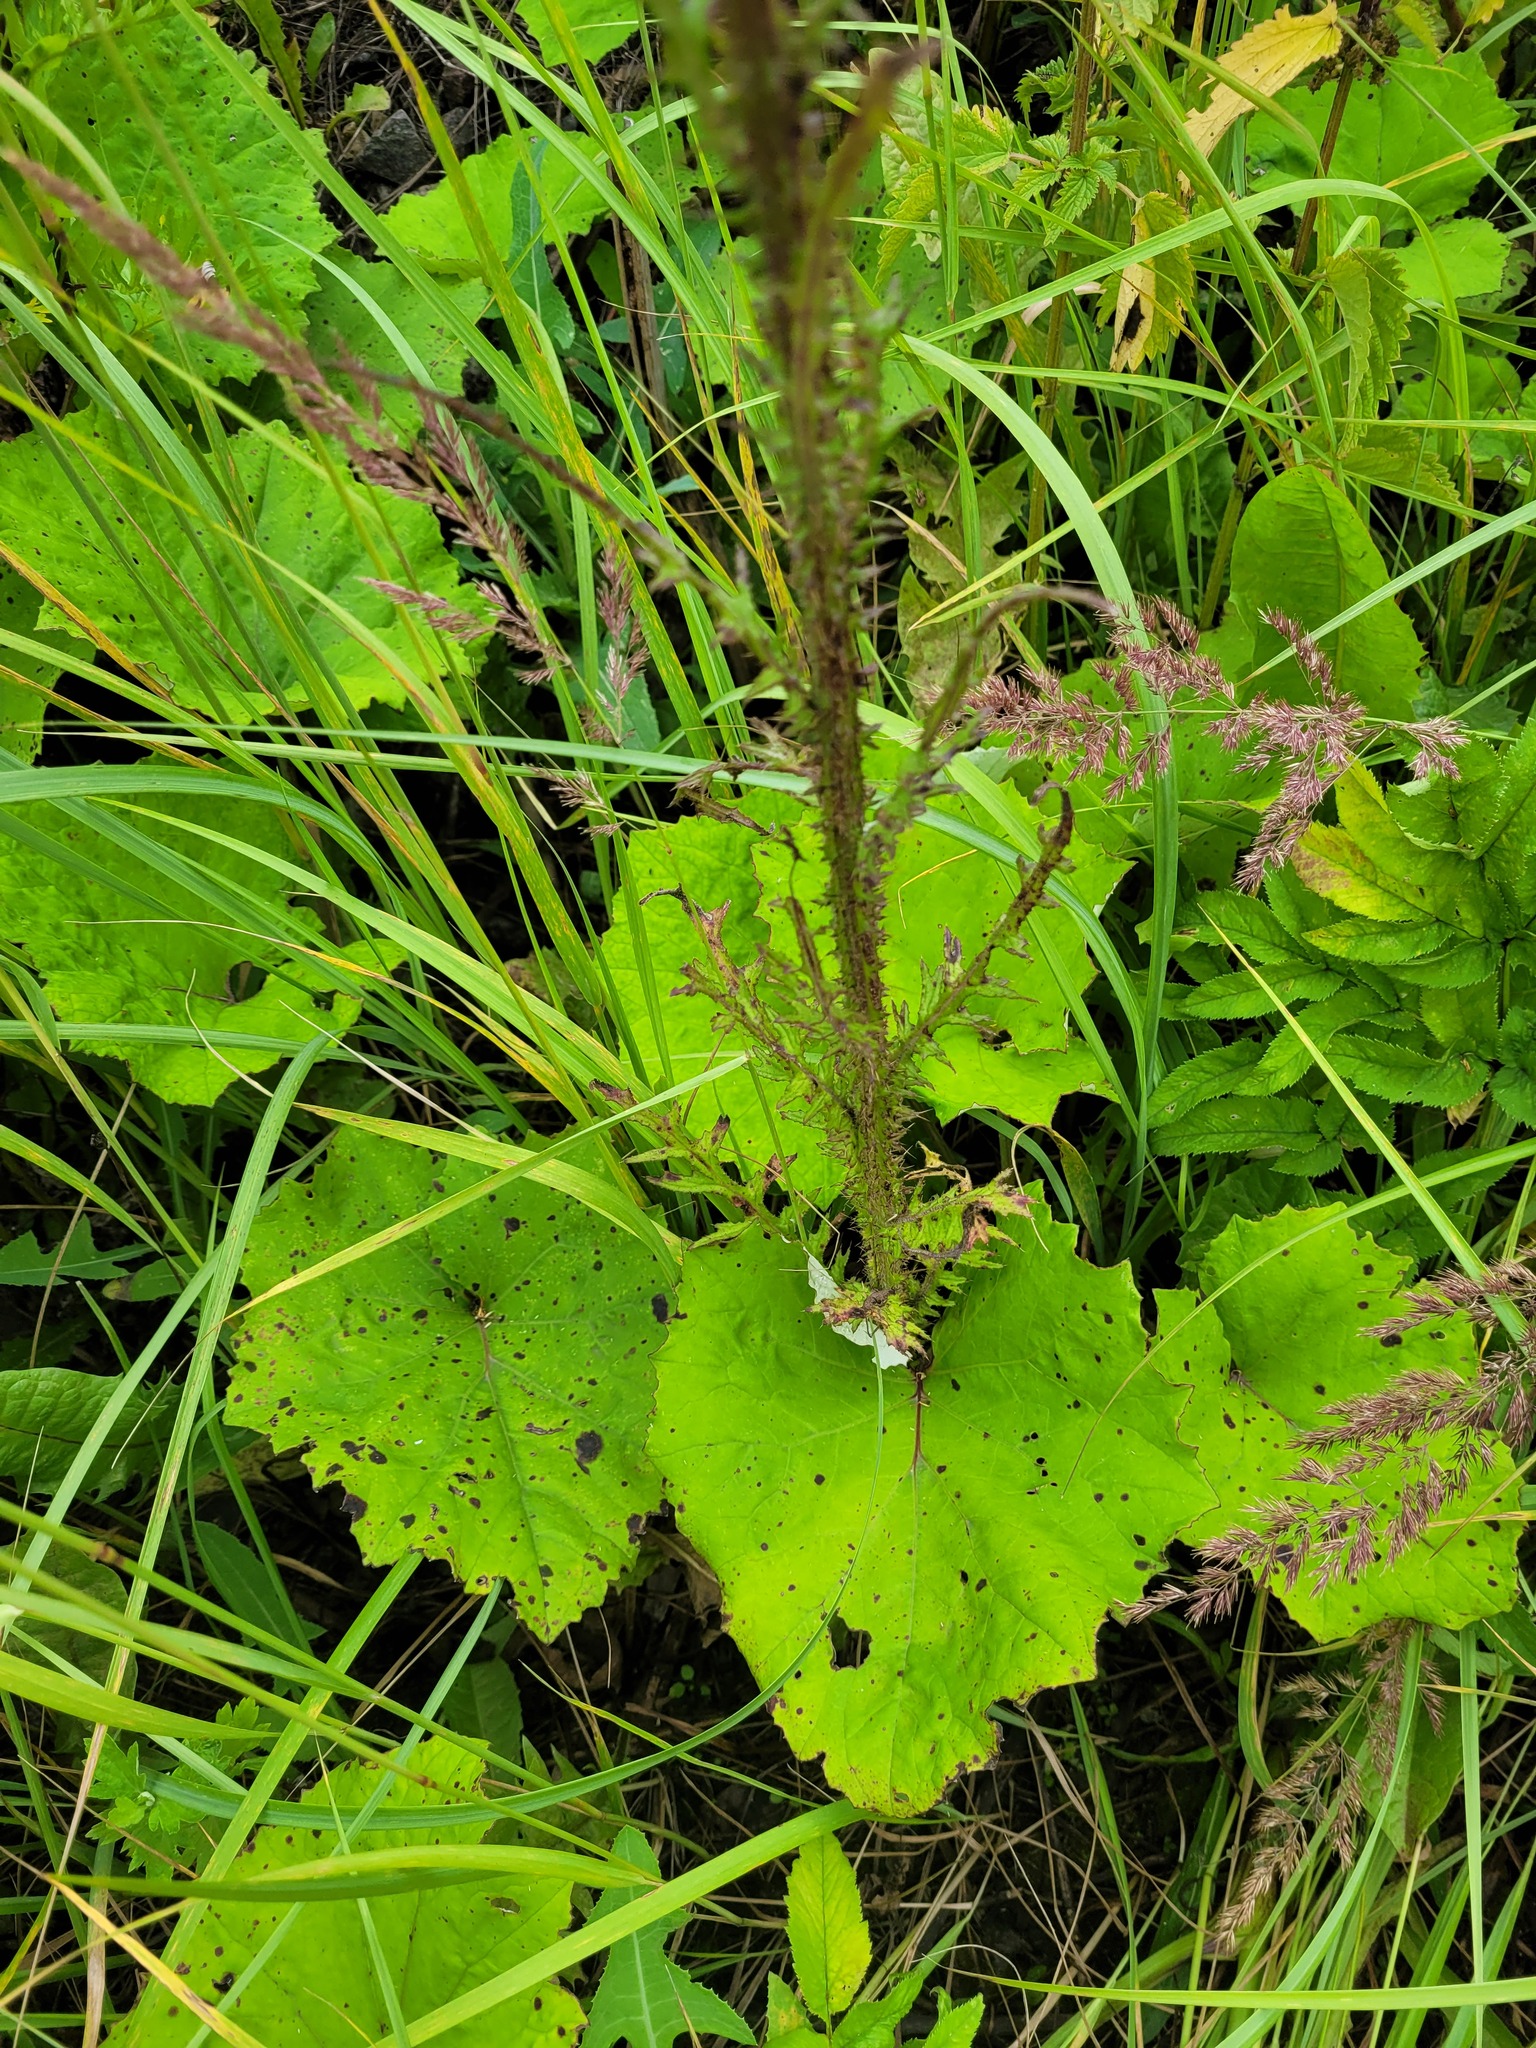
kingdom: Plantae
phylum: Tracheophyta
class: Magnoliopsida
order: Asterales
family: Asteraceae
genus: Cirsium
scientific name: Cirsium palustre
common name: Marsh thistle
